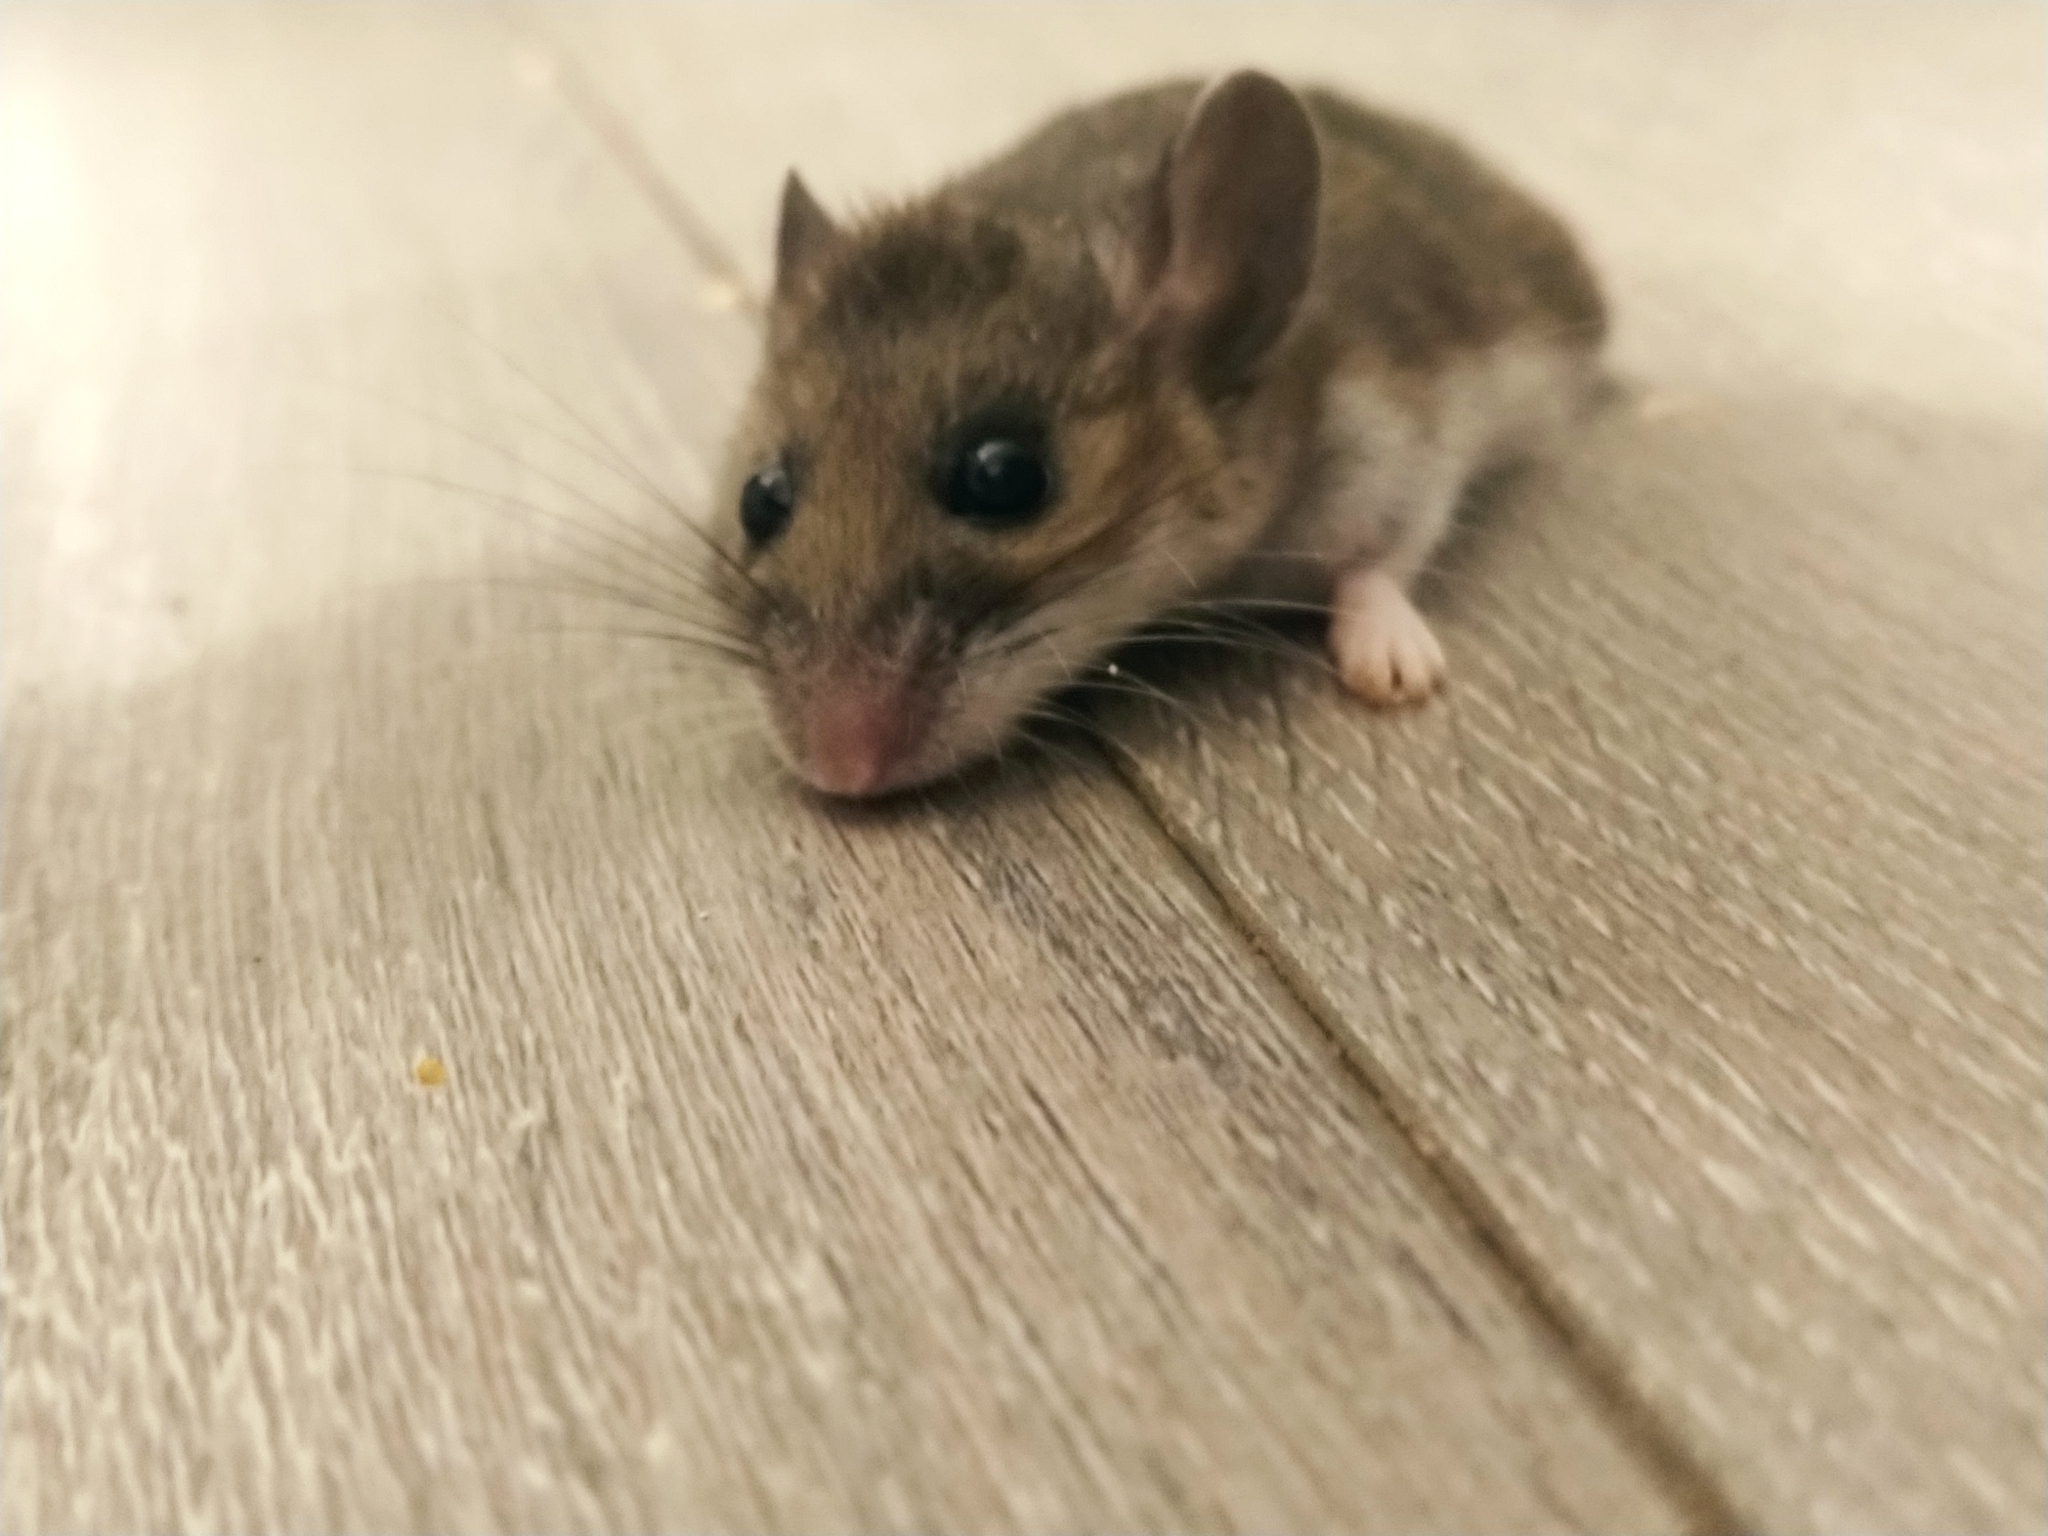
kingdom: Animalia
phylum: Chordata
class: Mammalia
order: Rodentia
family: Cricetidae
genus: Peromyscus
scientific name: Peromyscus maniculatus
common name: Deer mouse
